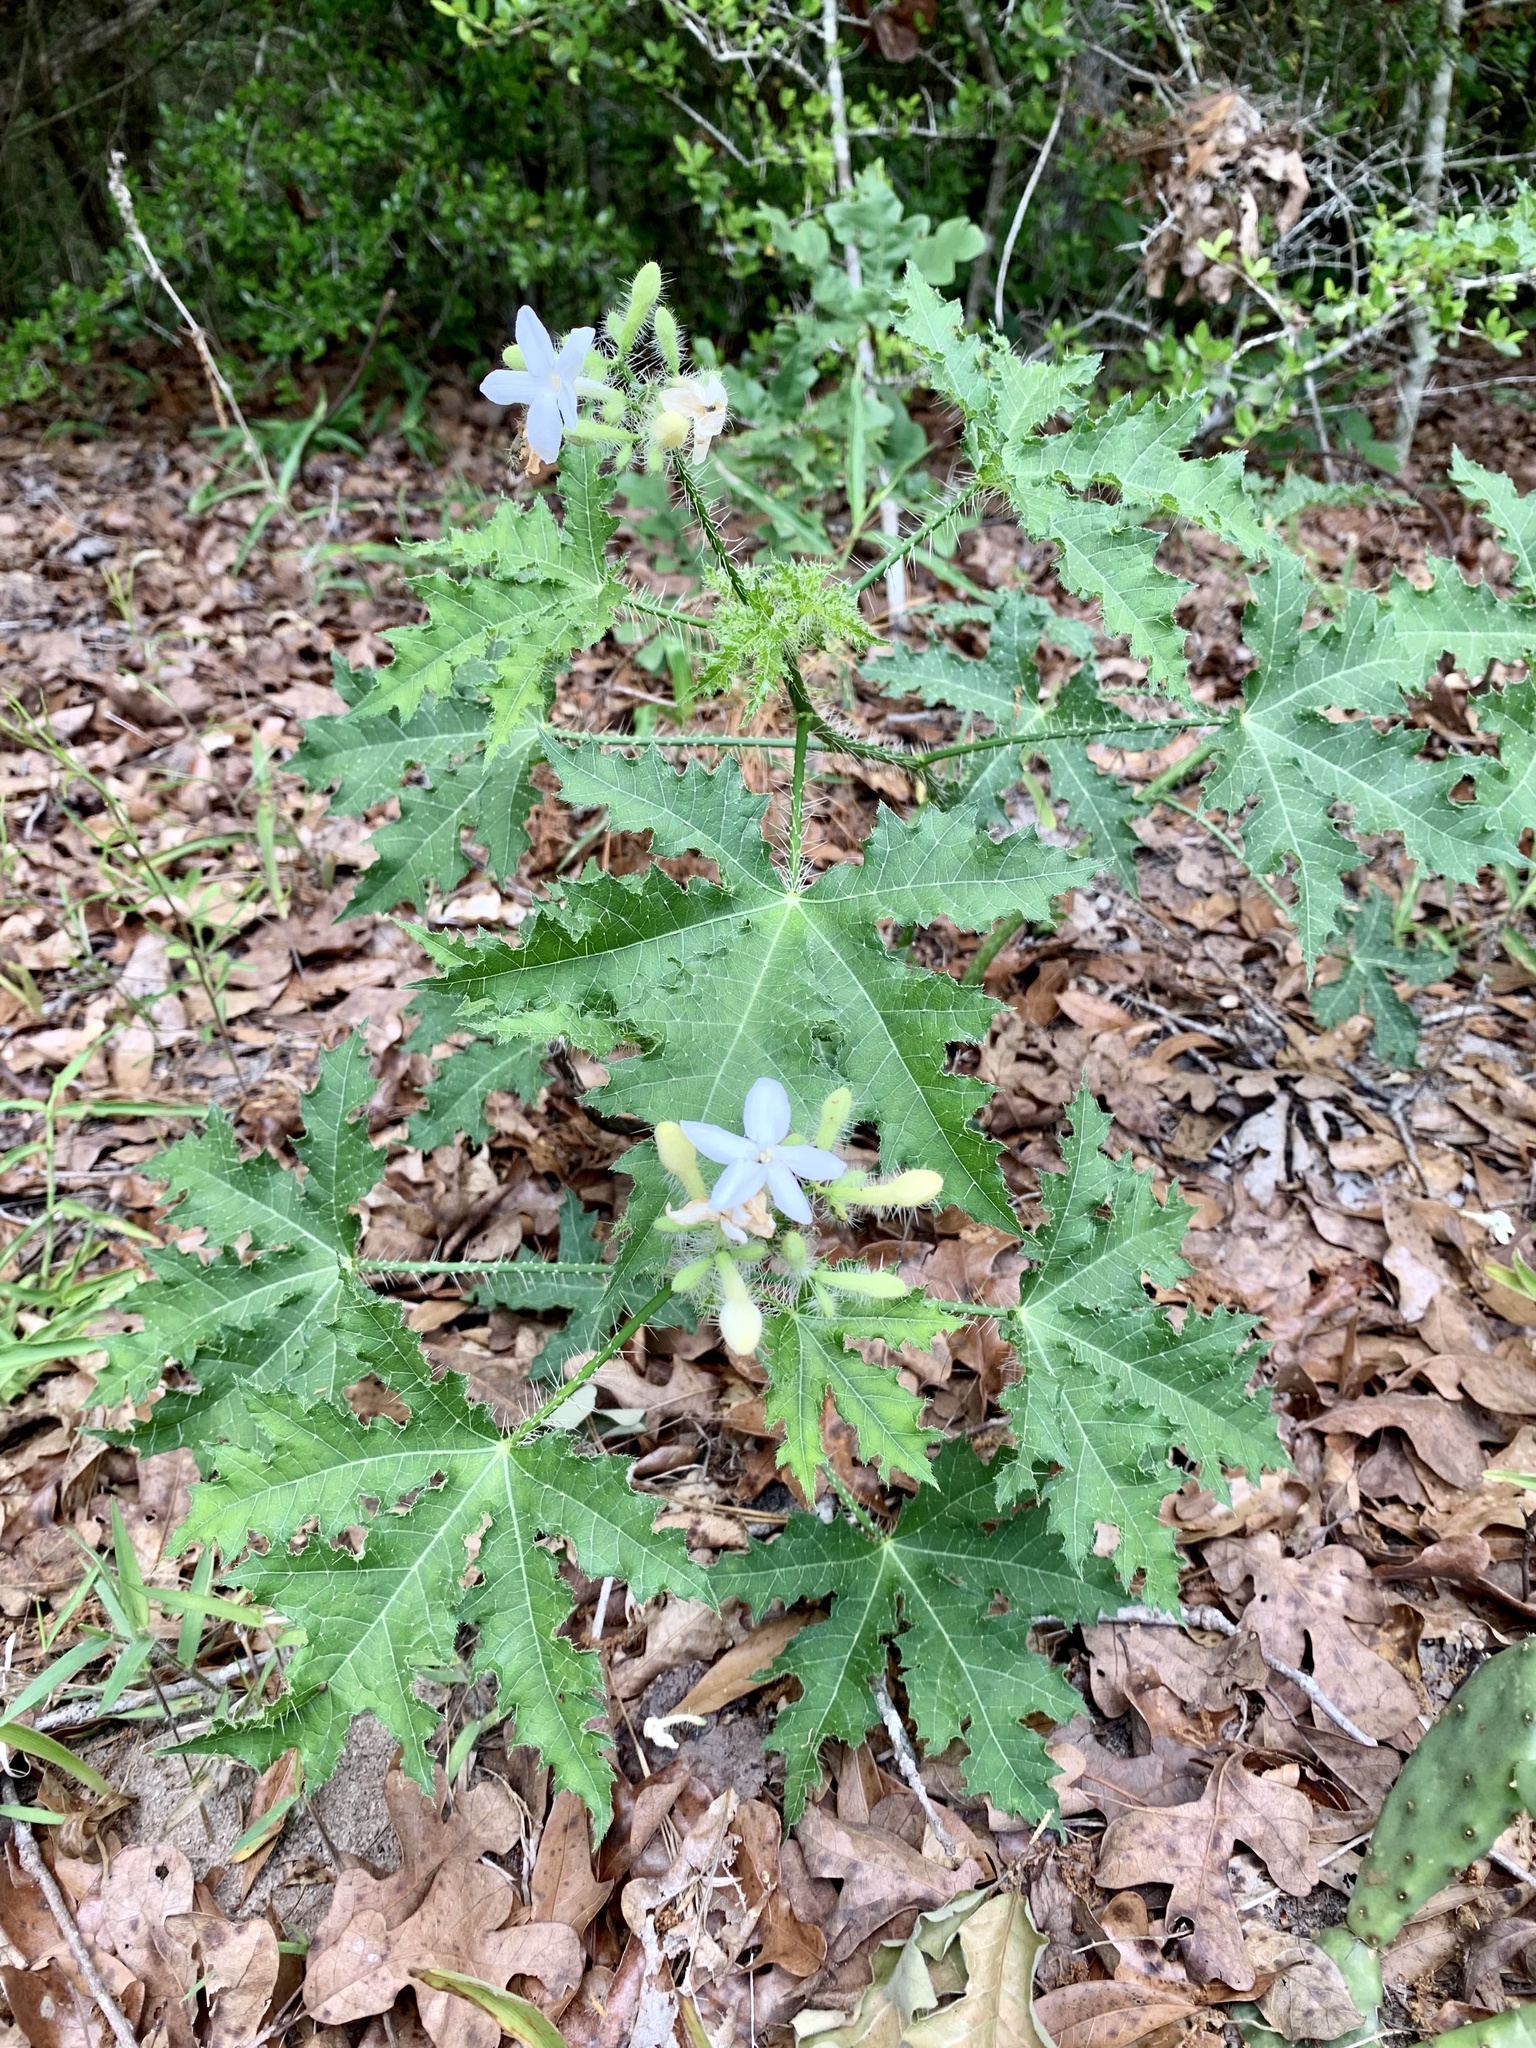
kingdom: Plantae
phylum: Tracheophyta
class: Magnoliopsida
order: Malpighiales
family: Euphorbiaceae
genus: Cnidoscolus
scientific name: Cnidoscolus texanus
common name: Texas bull-nettle
